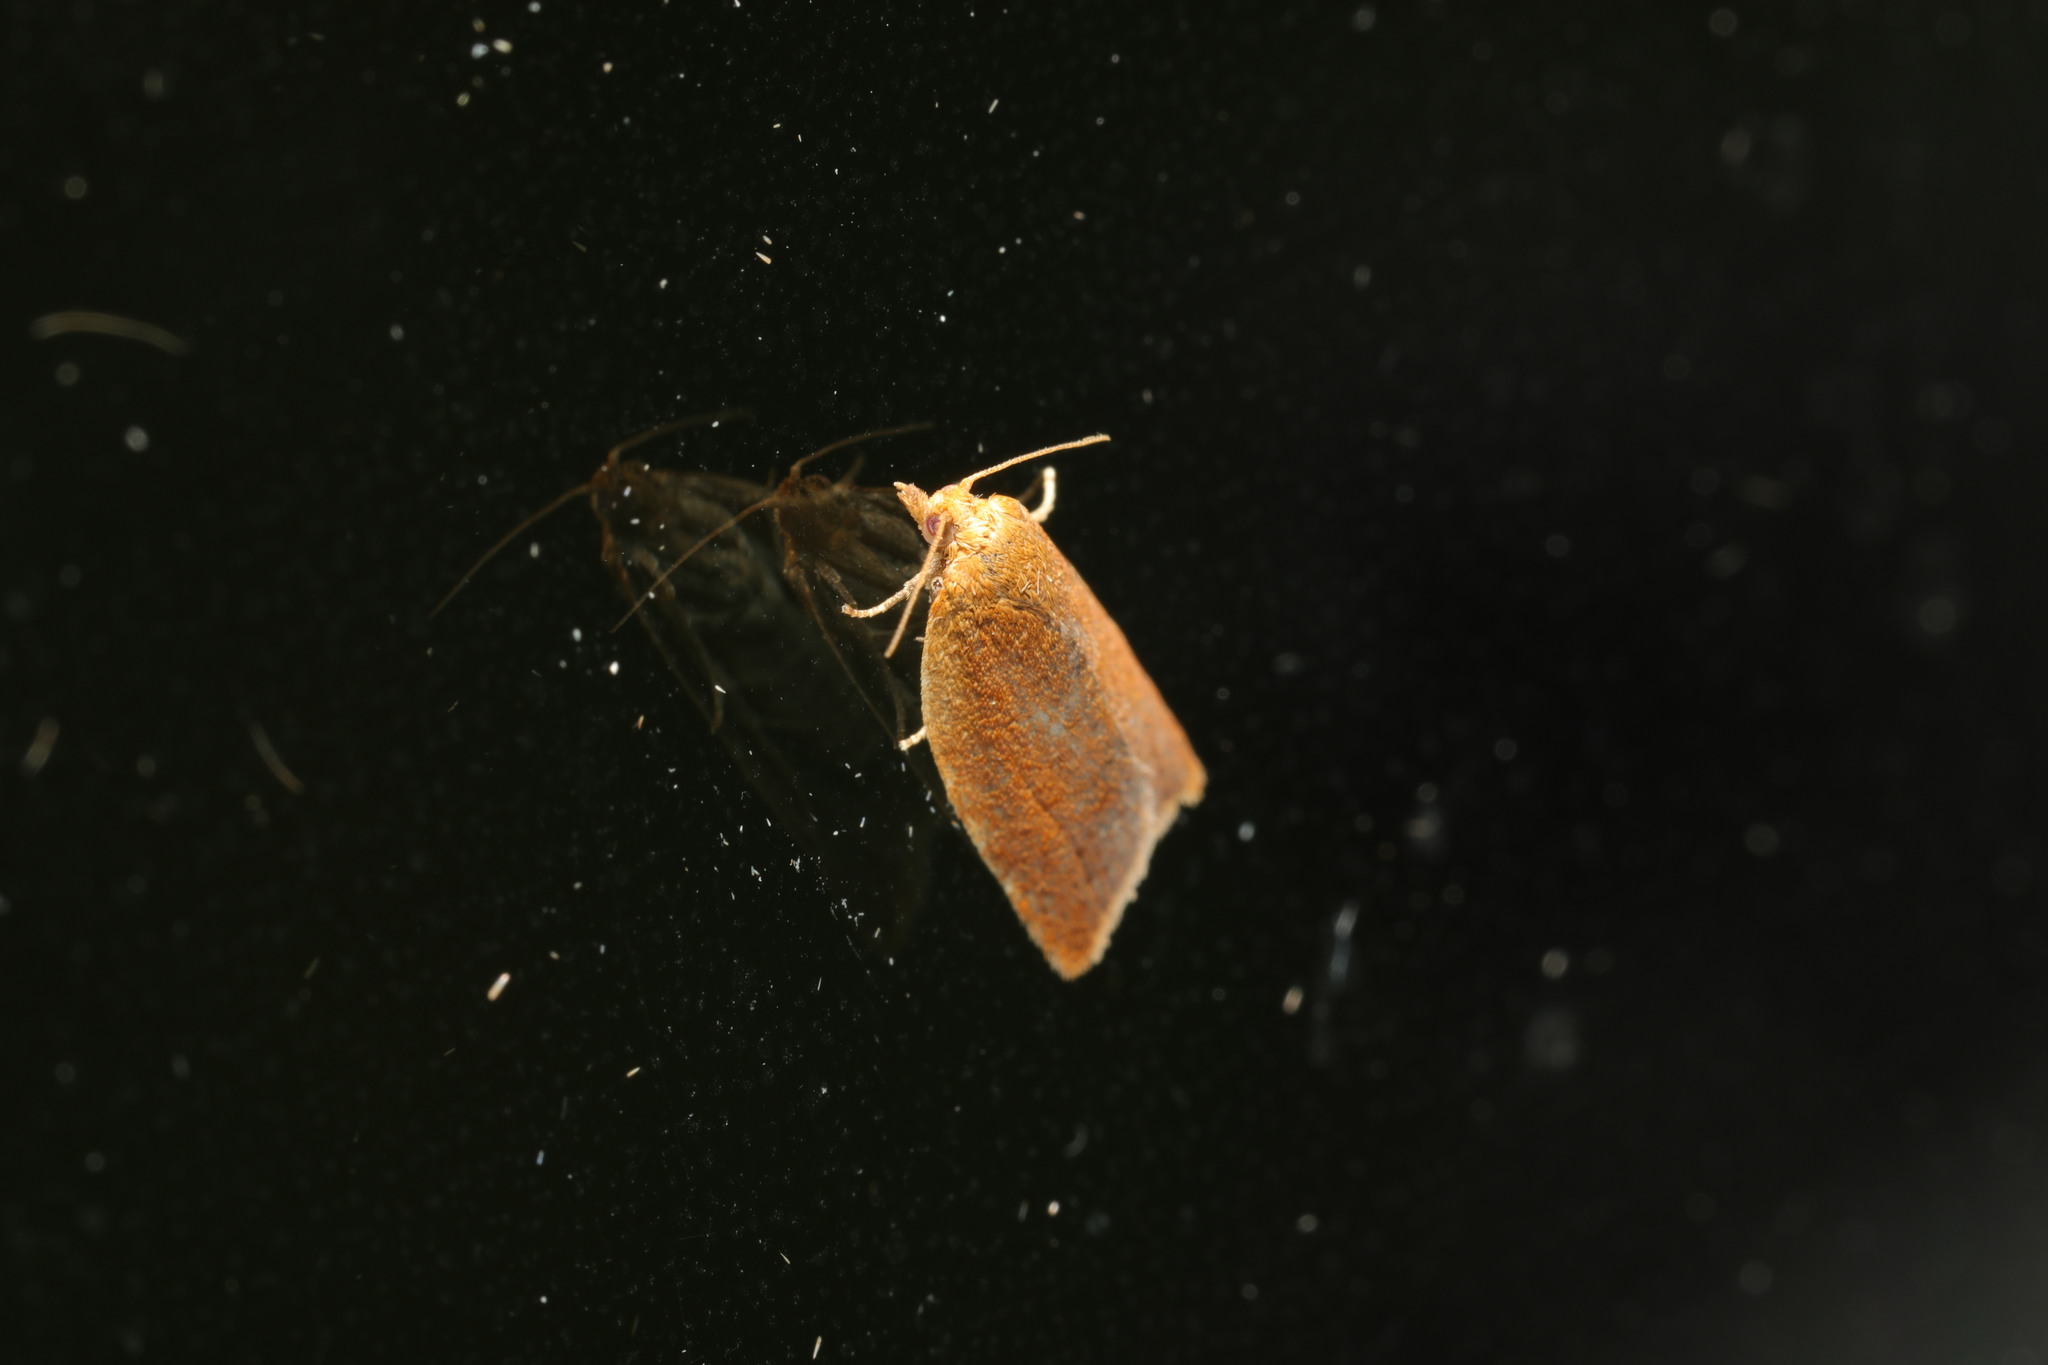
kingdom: Animalia
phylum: Arthropoda
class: Insecta
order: Lepidoptera
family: Tortricidae
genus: Clepsis
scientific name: Clepsis consimilana
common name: Privet tortrix
